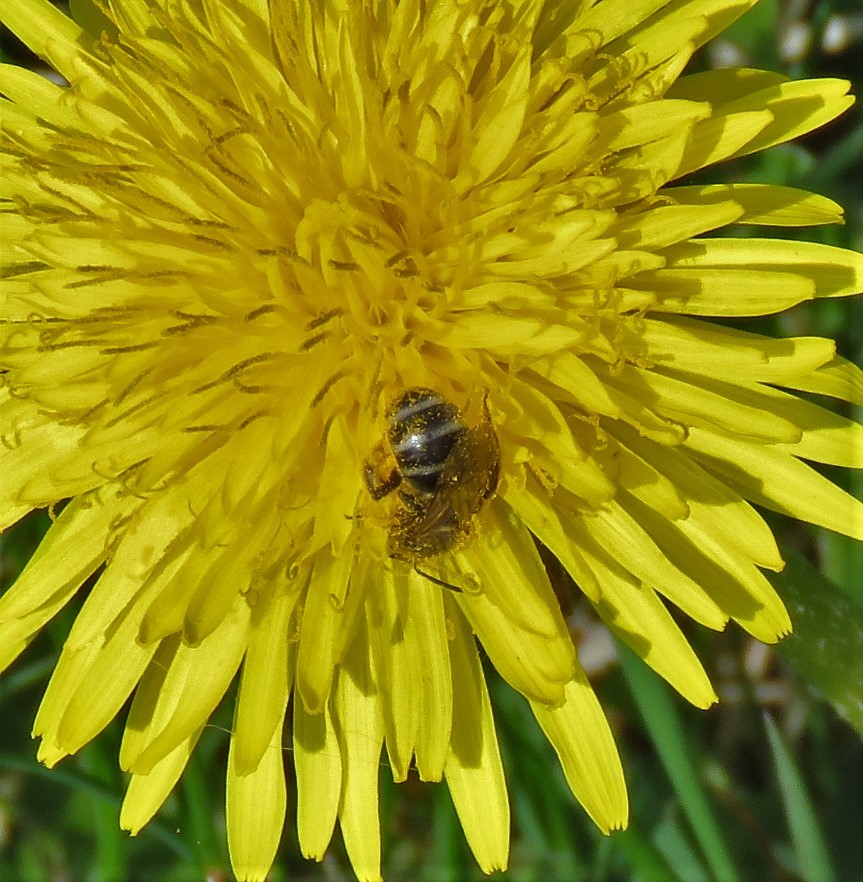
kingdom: Animalia
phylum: Arthropoda
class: Insecta
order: Hymenoptera
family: Halictidae
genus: Lasioglossum
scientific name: Lasioglossum
